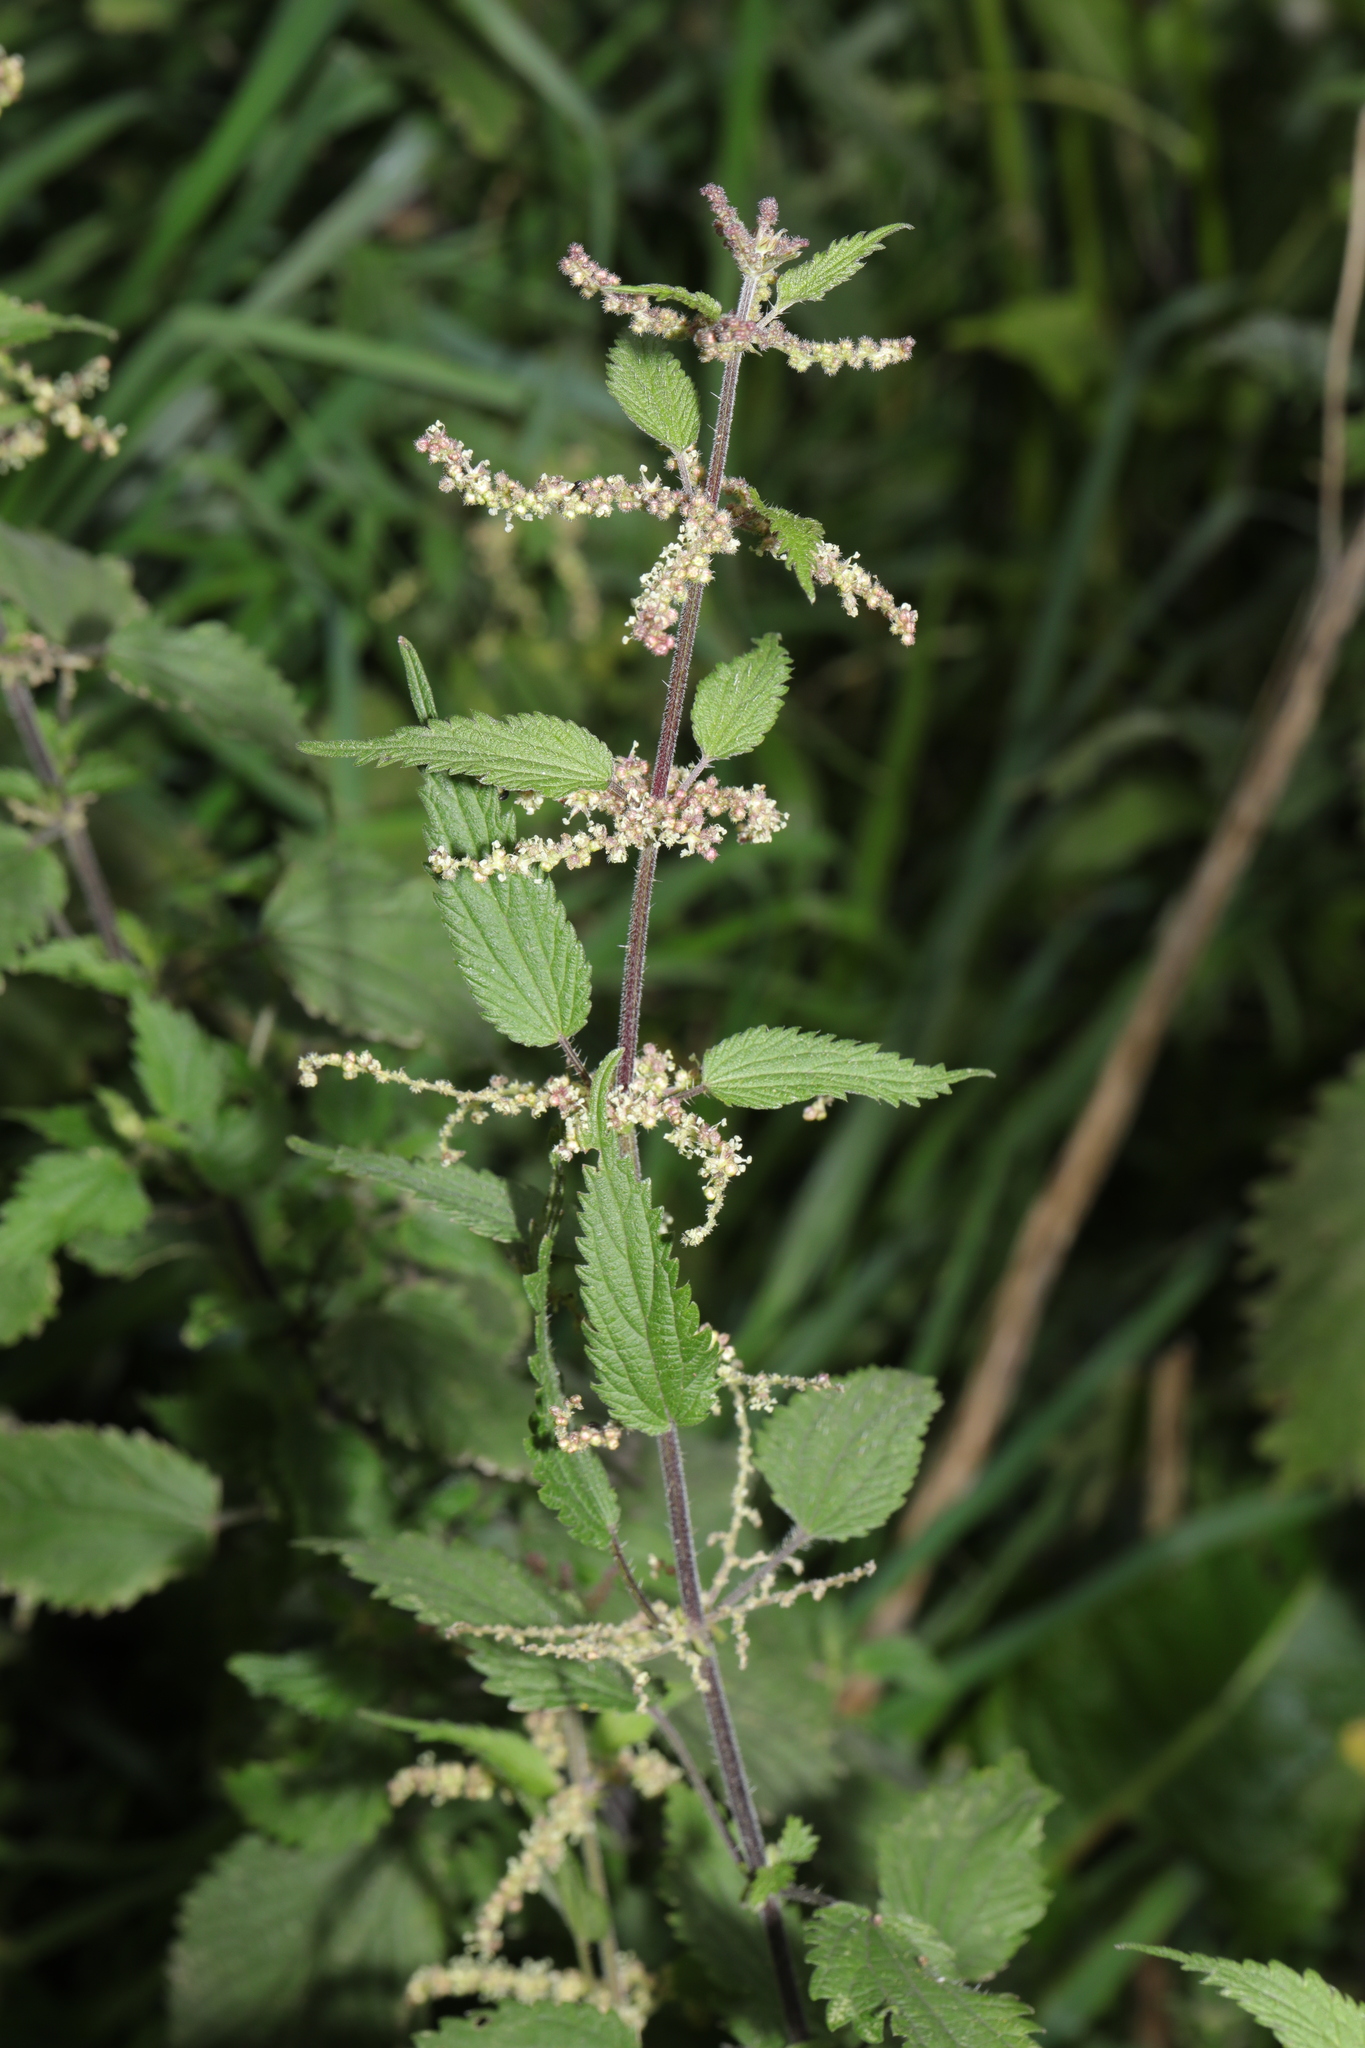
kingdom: Plantae
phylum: Tracheophyta
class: Magnoliopsida
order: Rosales
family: Urticaceae
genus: Urtica
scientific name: Urtica dioica
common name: Common nettle
